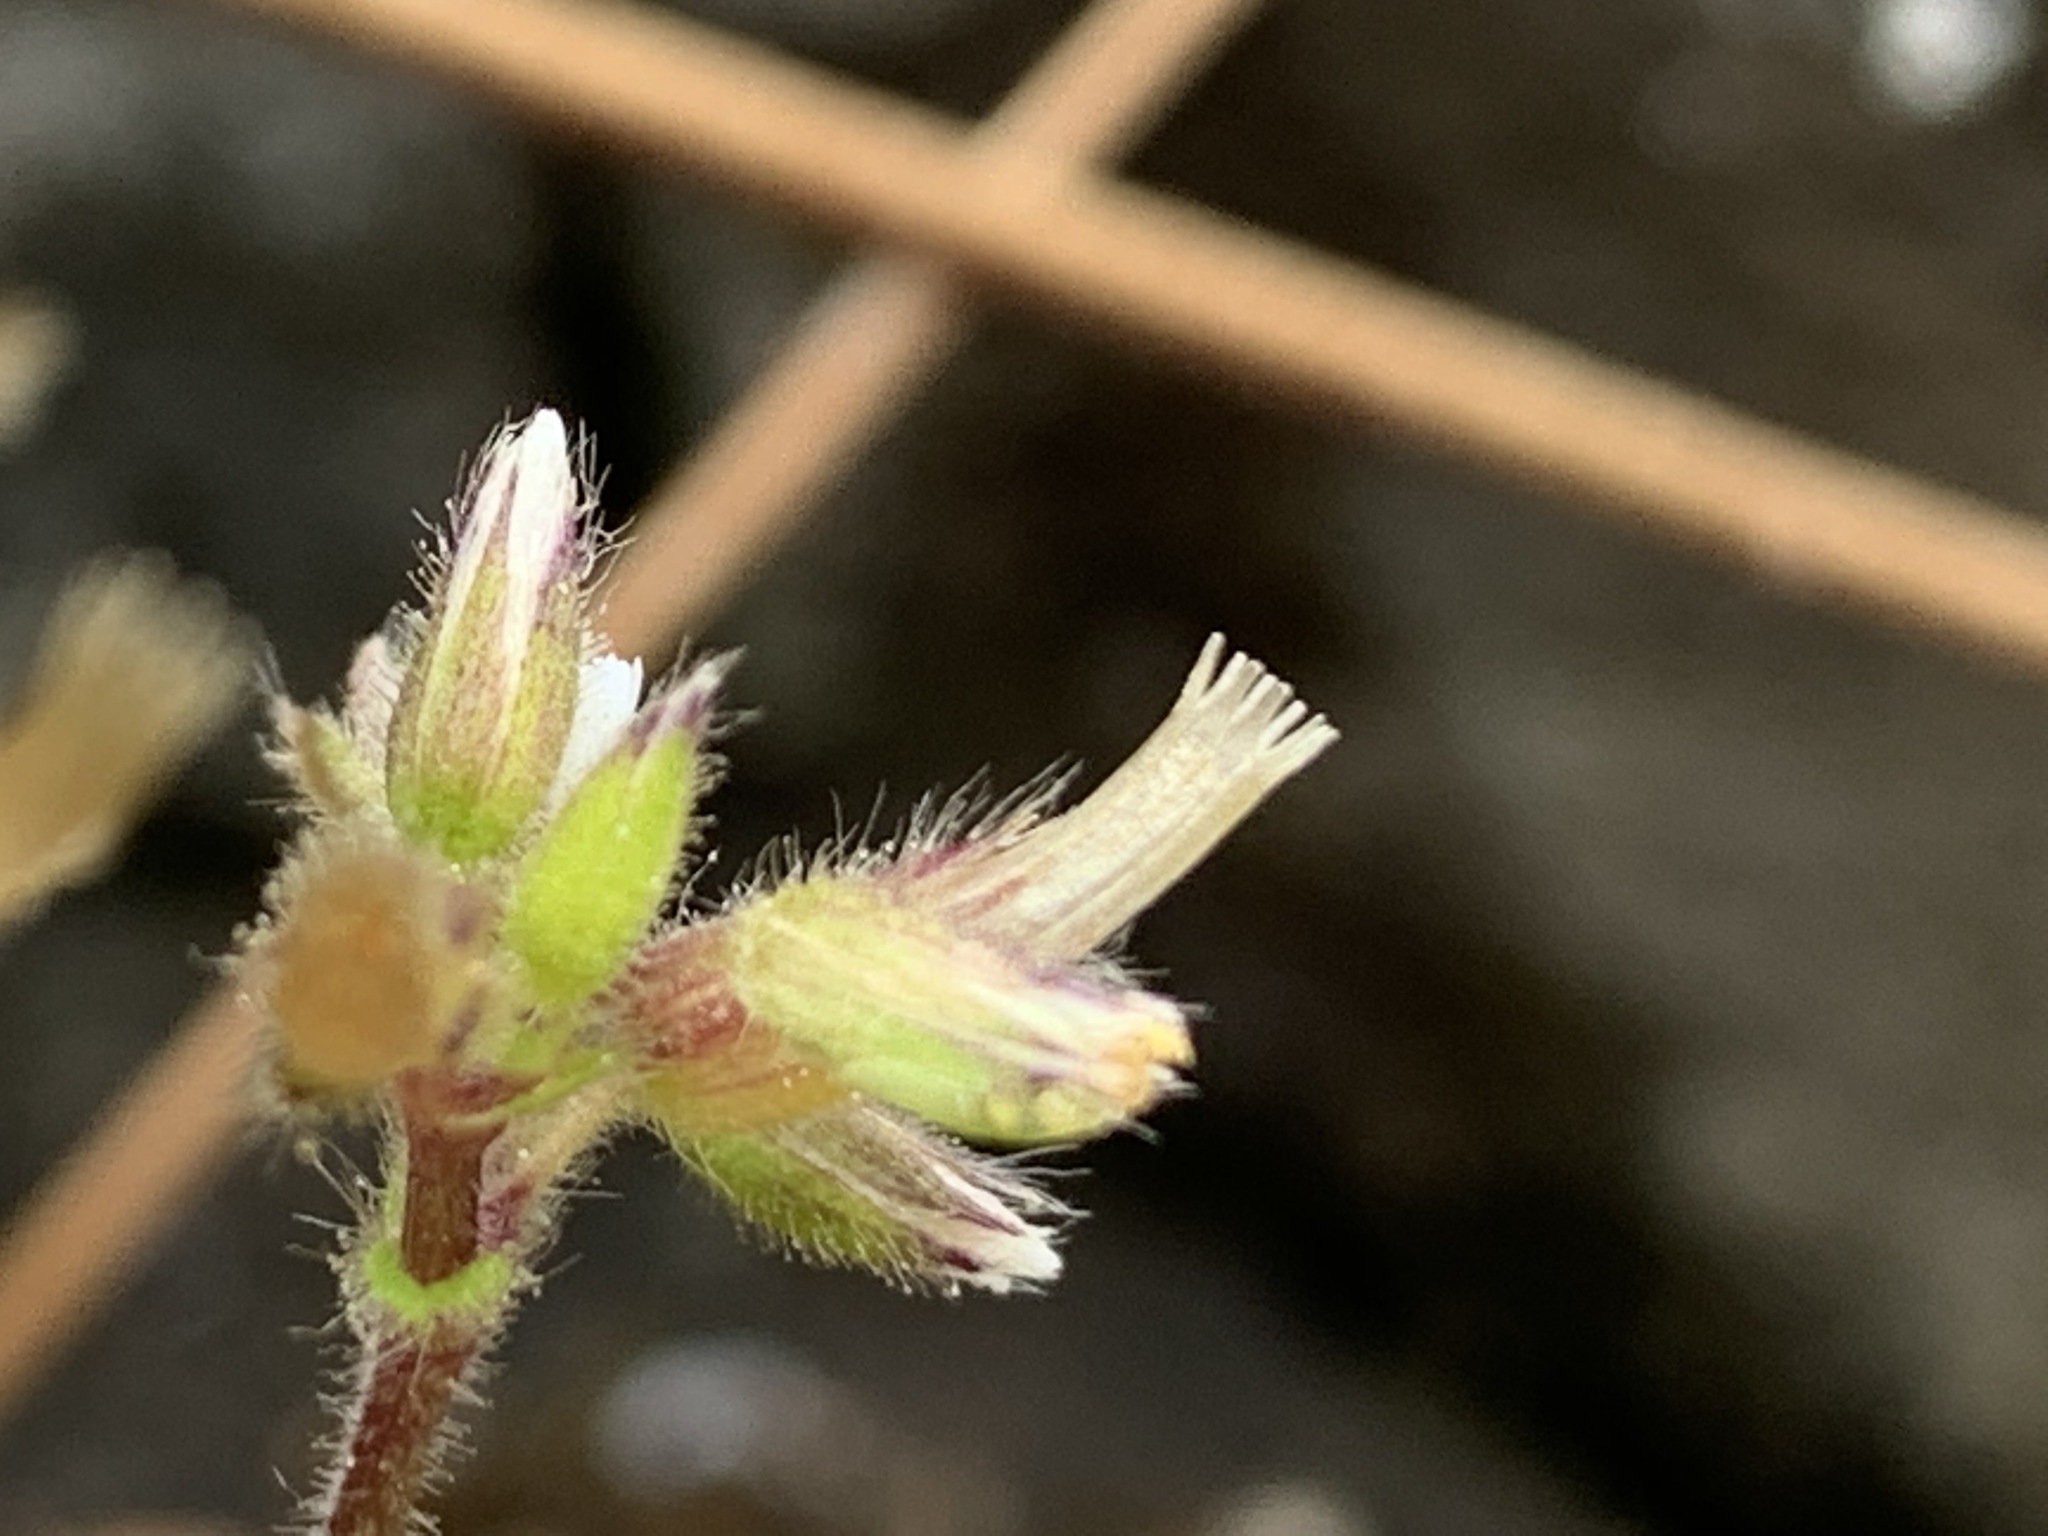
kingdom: Plantae
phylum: Tracheophyta
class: Magnoliopsida
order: Caryophyllales
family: Caryophyllaceae
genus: Cerastium
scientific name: Cerastium glomeratum
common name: Sticky chickweed
